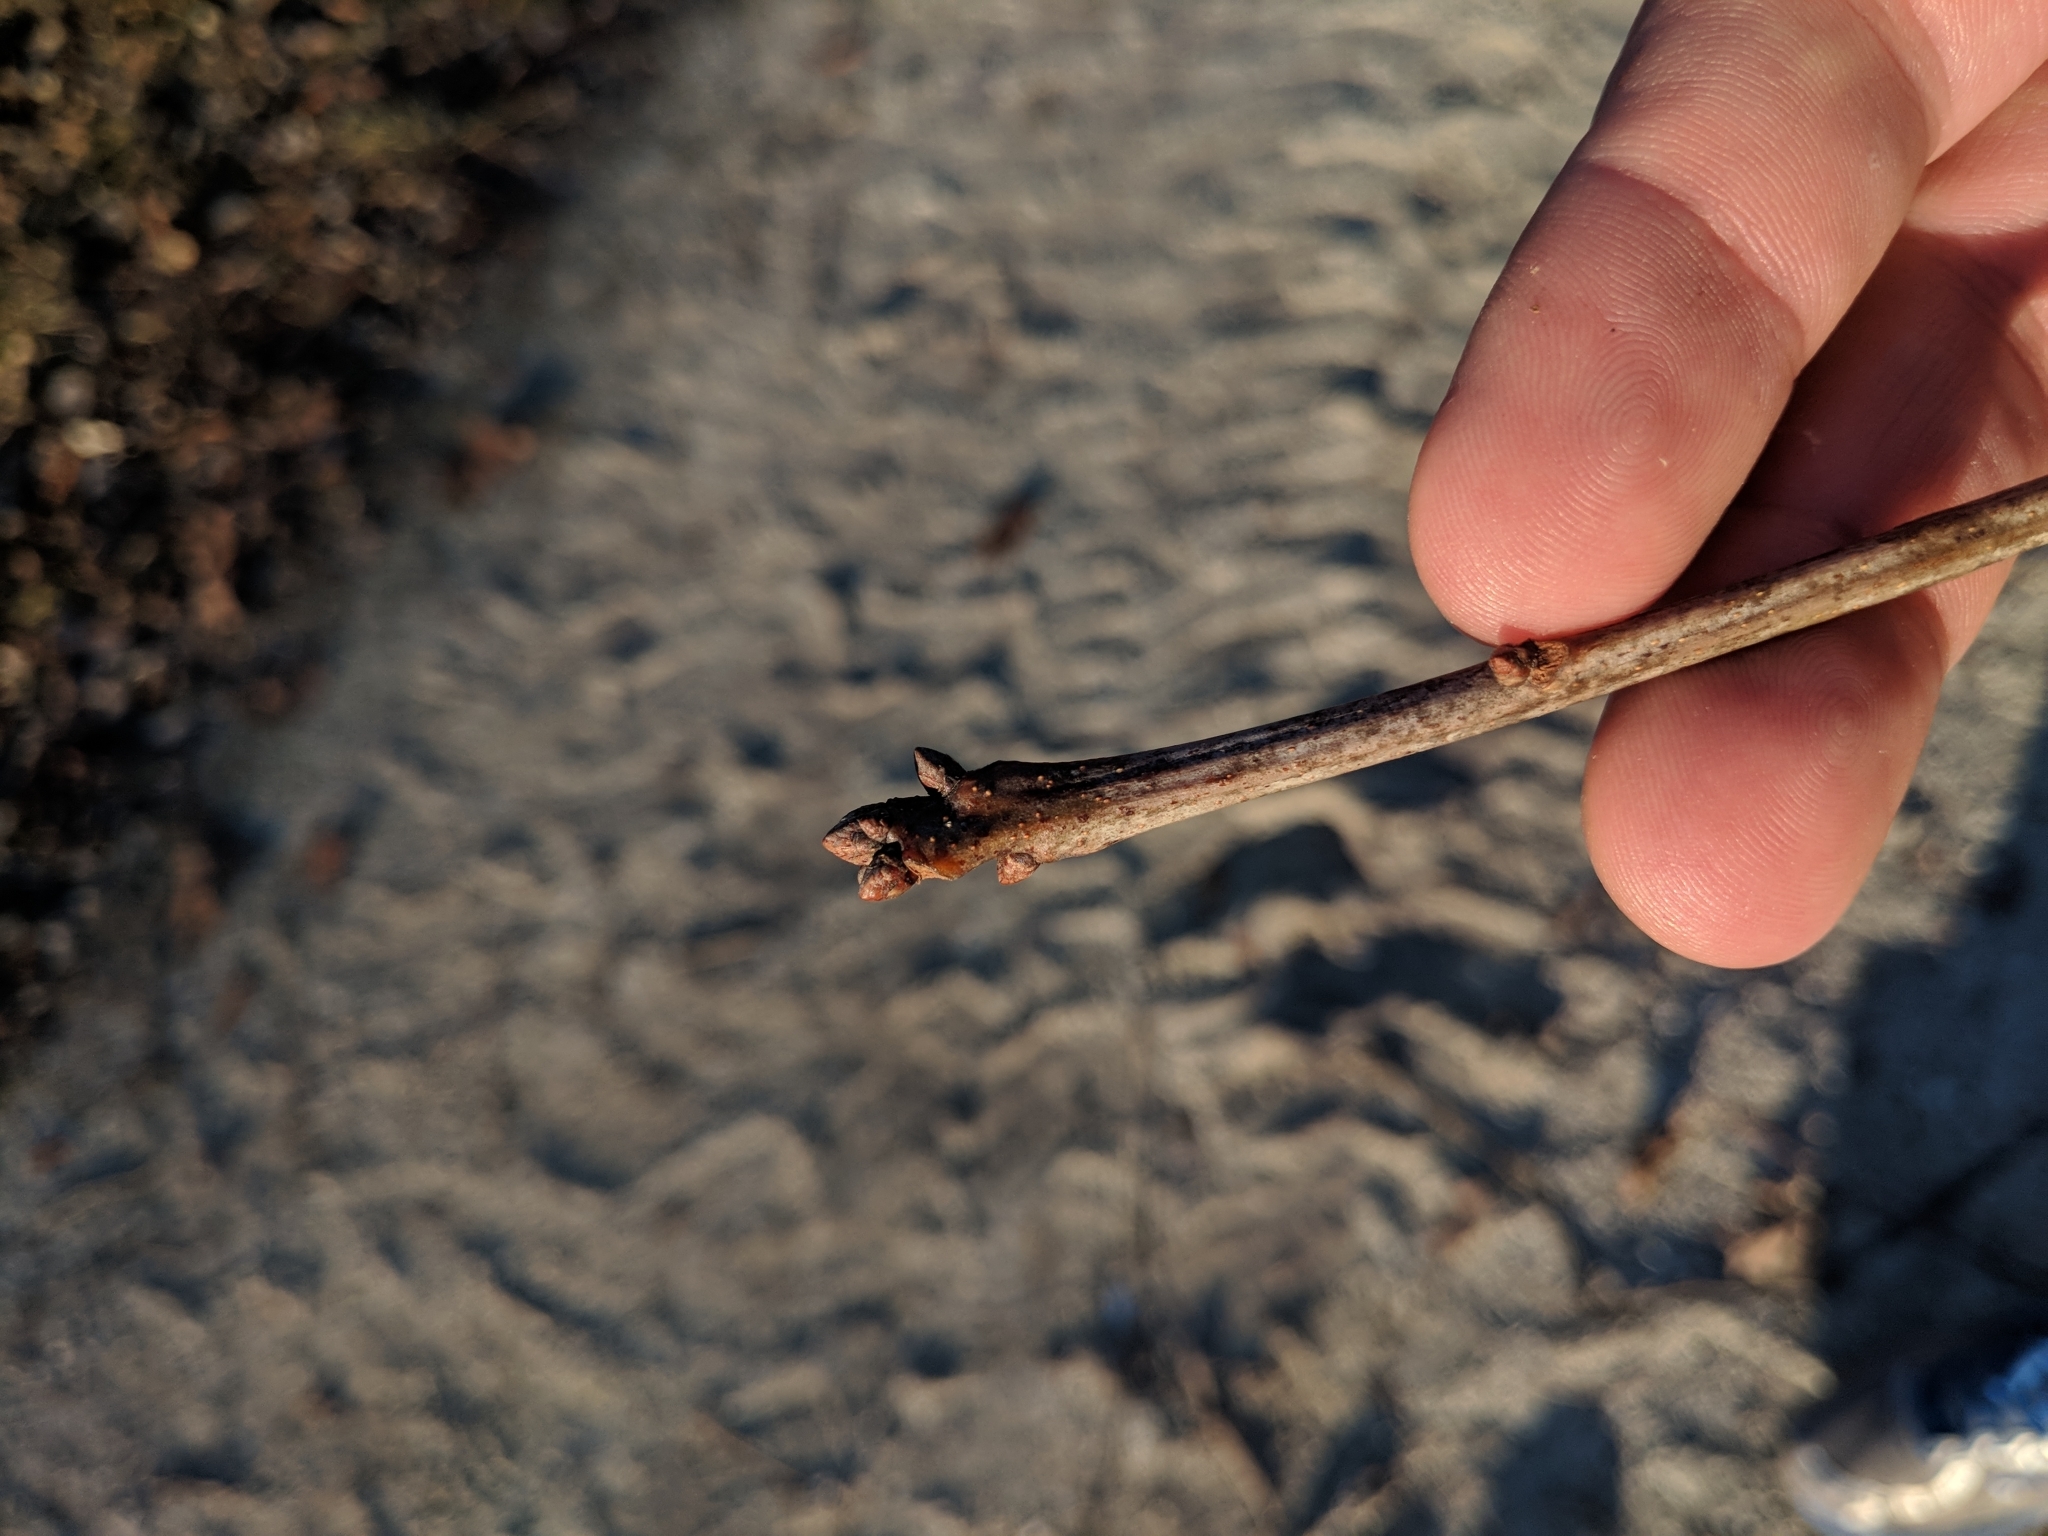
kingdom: Plantae
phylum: Tracheophyta
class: Magnoliopsida
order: Fagales
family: Fagaceae
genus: Quercus
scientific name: Quercus alba
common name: White oak
